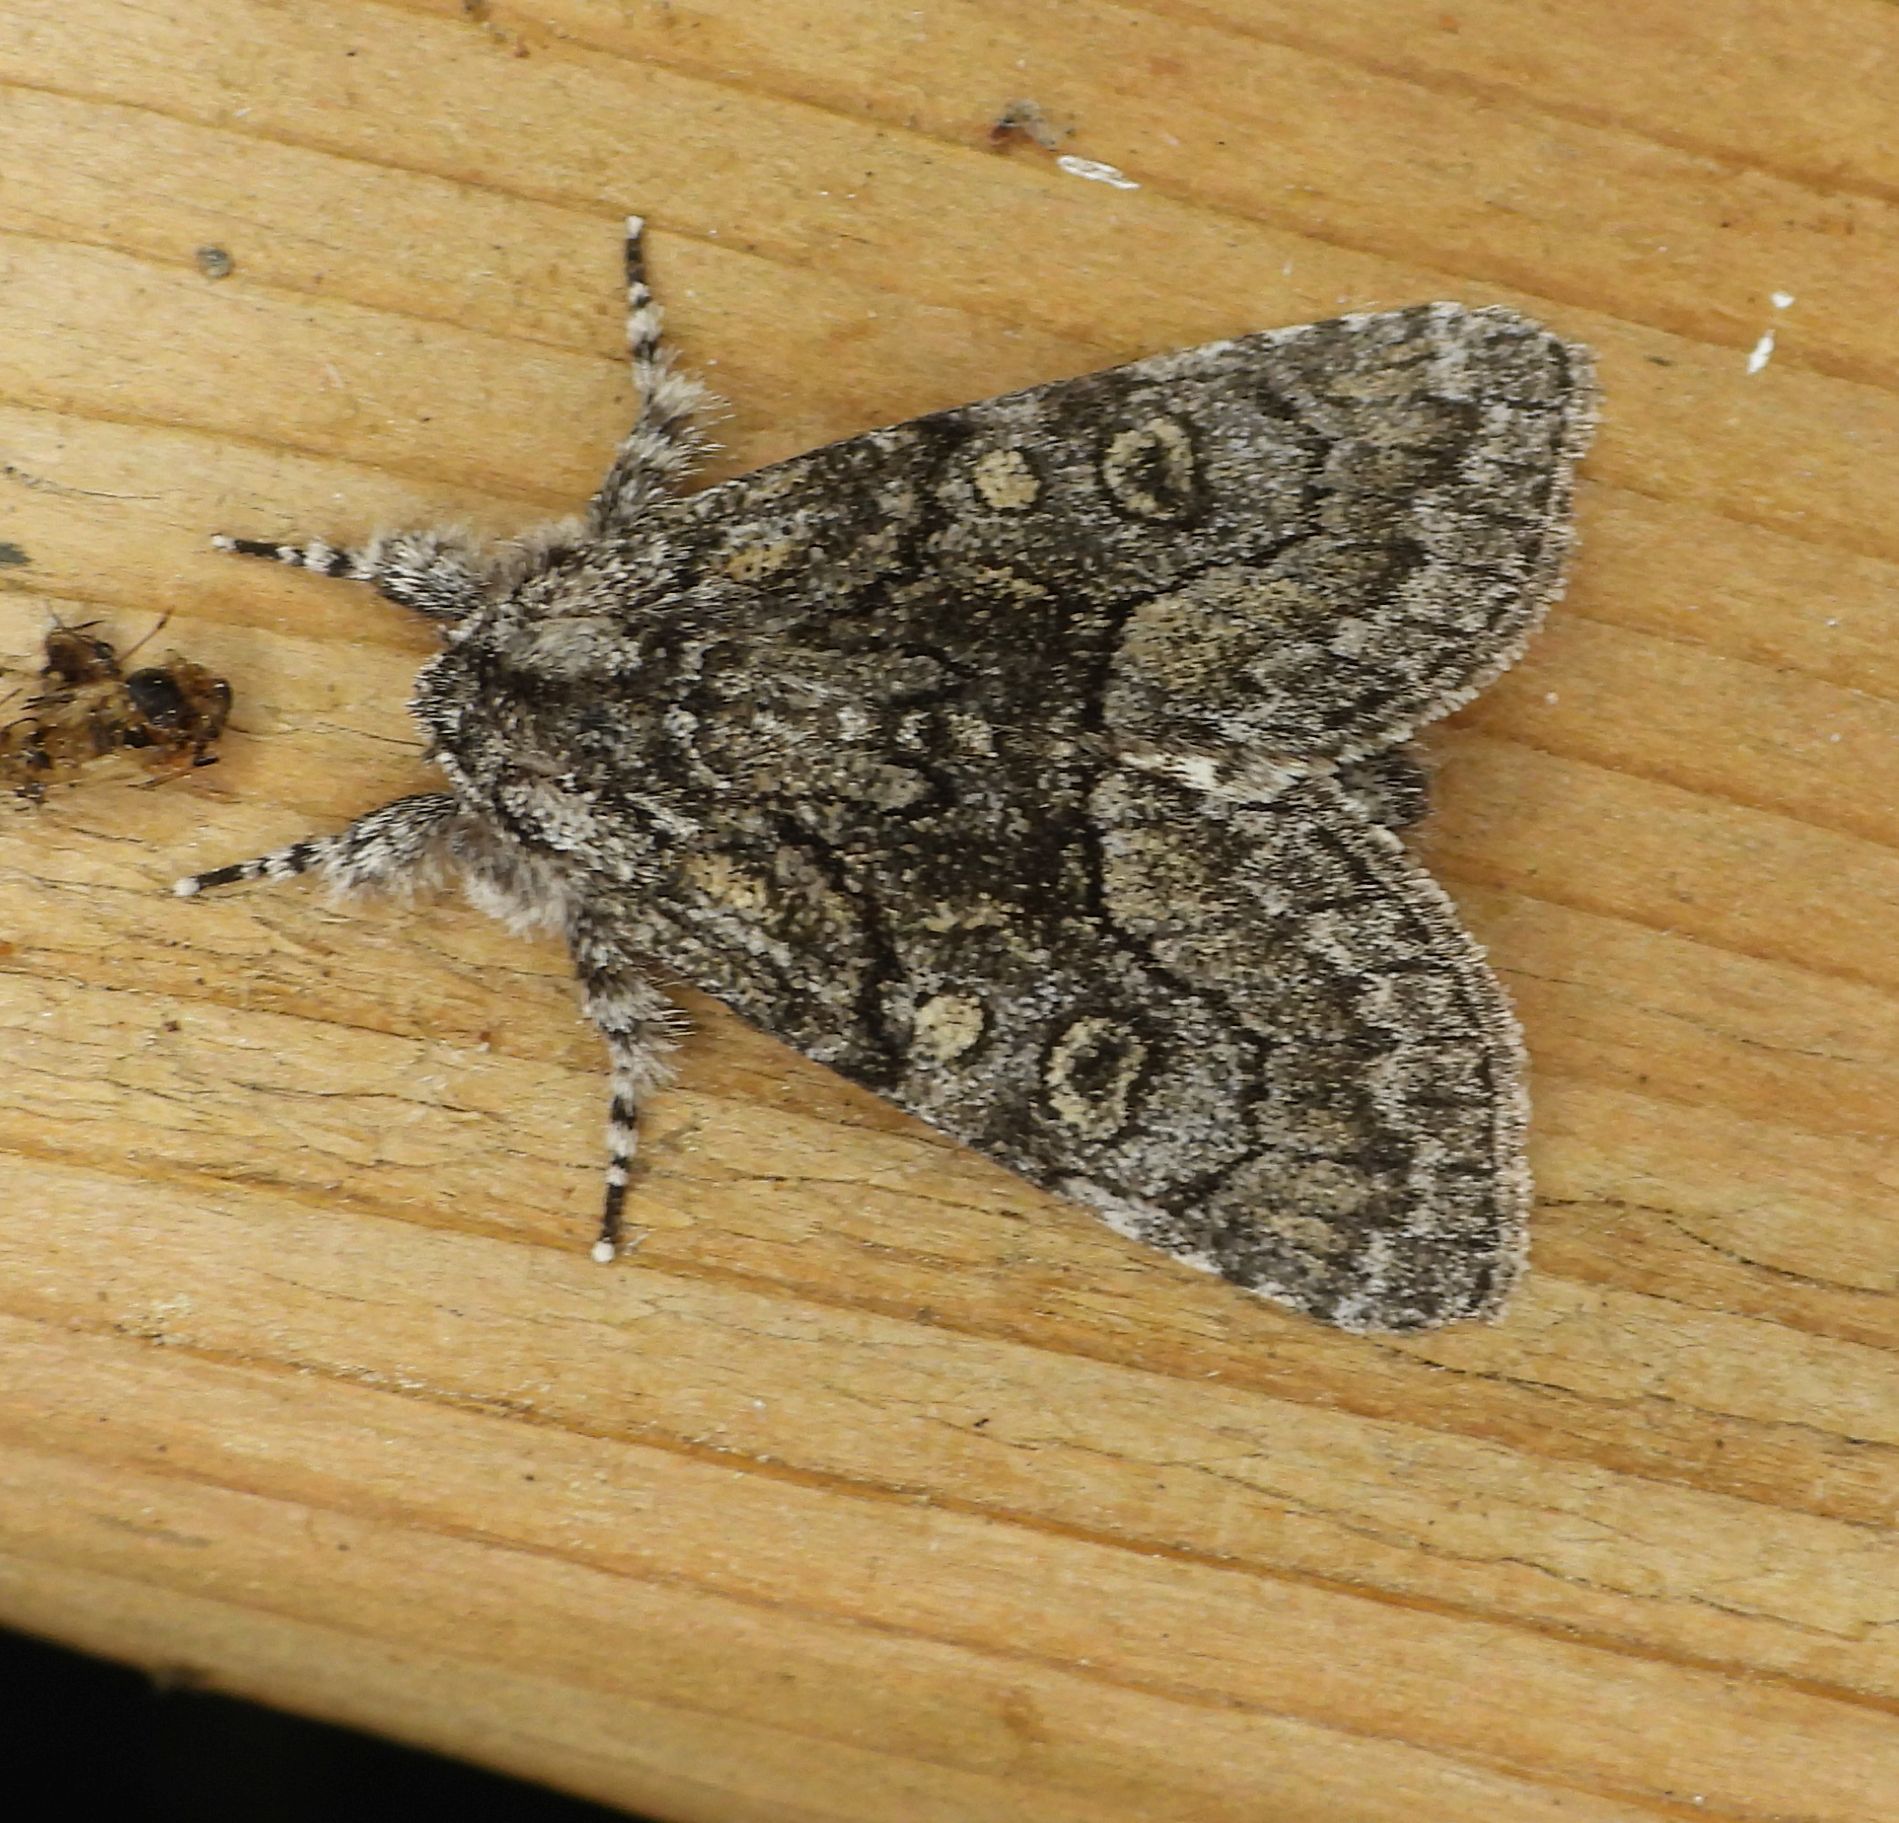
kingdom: Animalia
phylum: Arthropoda
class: Insecta
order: Lepidoptera
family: Noctuidae
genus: Raphia
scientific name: Raphia frater
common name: Brother
